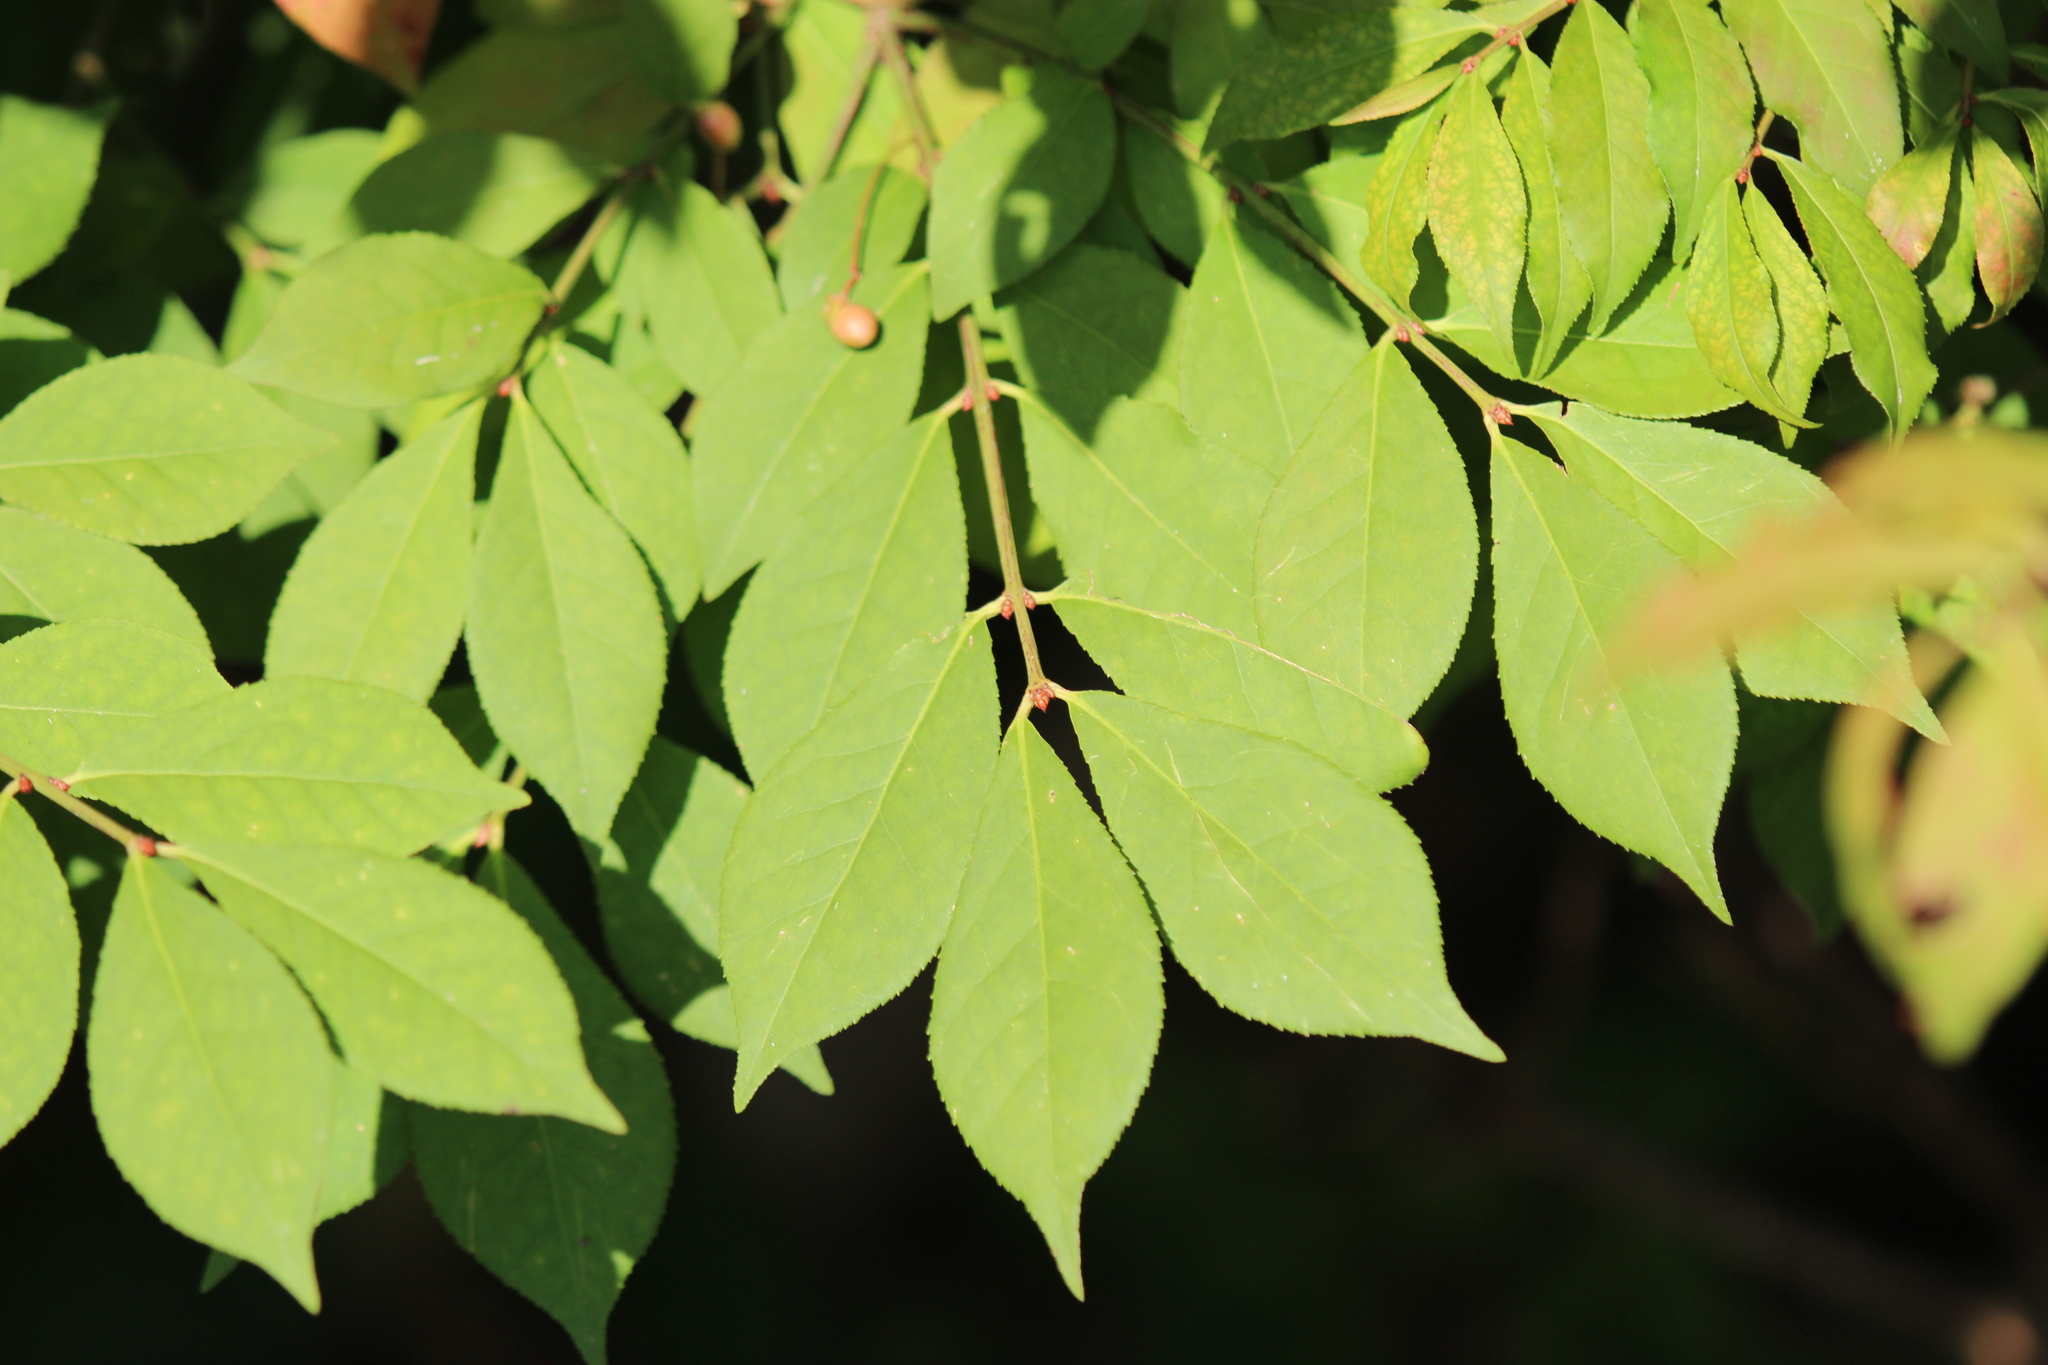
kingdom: Plantae
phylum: Tracheophyta
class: Magnoliopsida
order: Celastrales
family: Celastraceae
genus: Euonymus
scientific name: Euonymus alatus
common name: Winged euonymus
